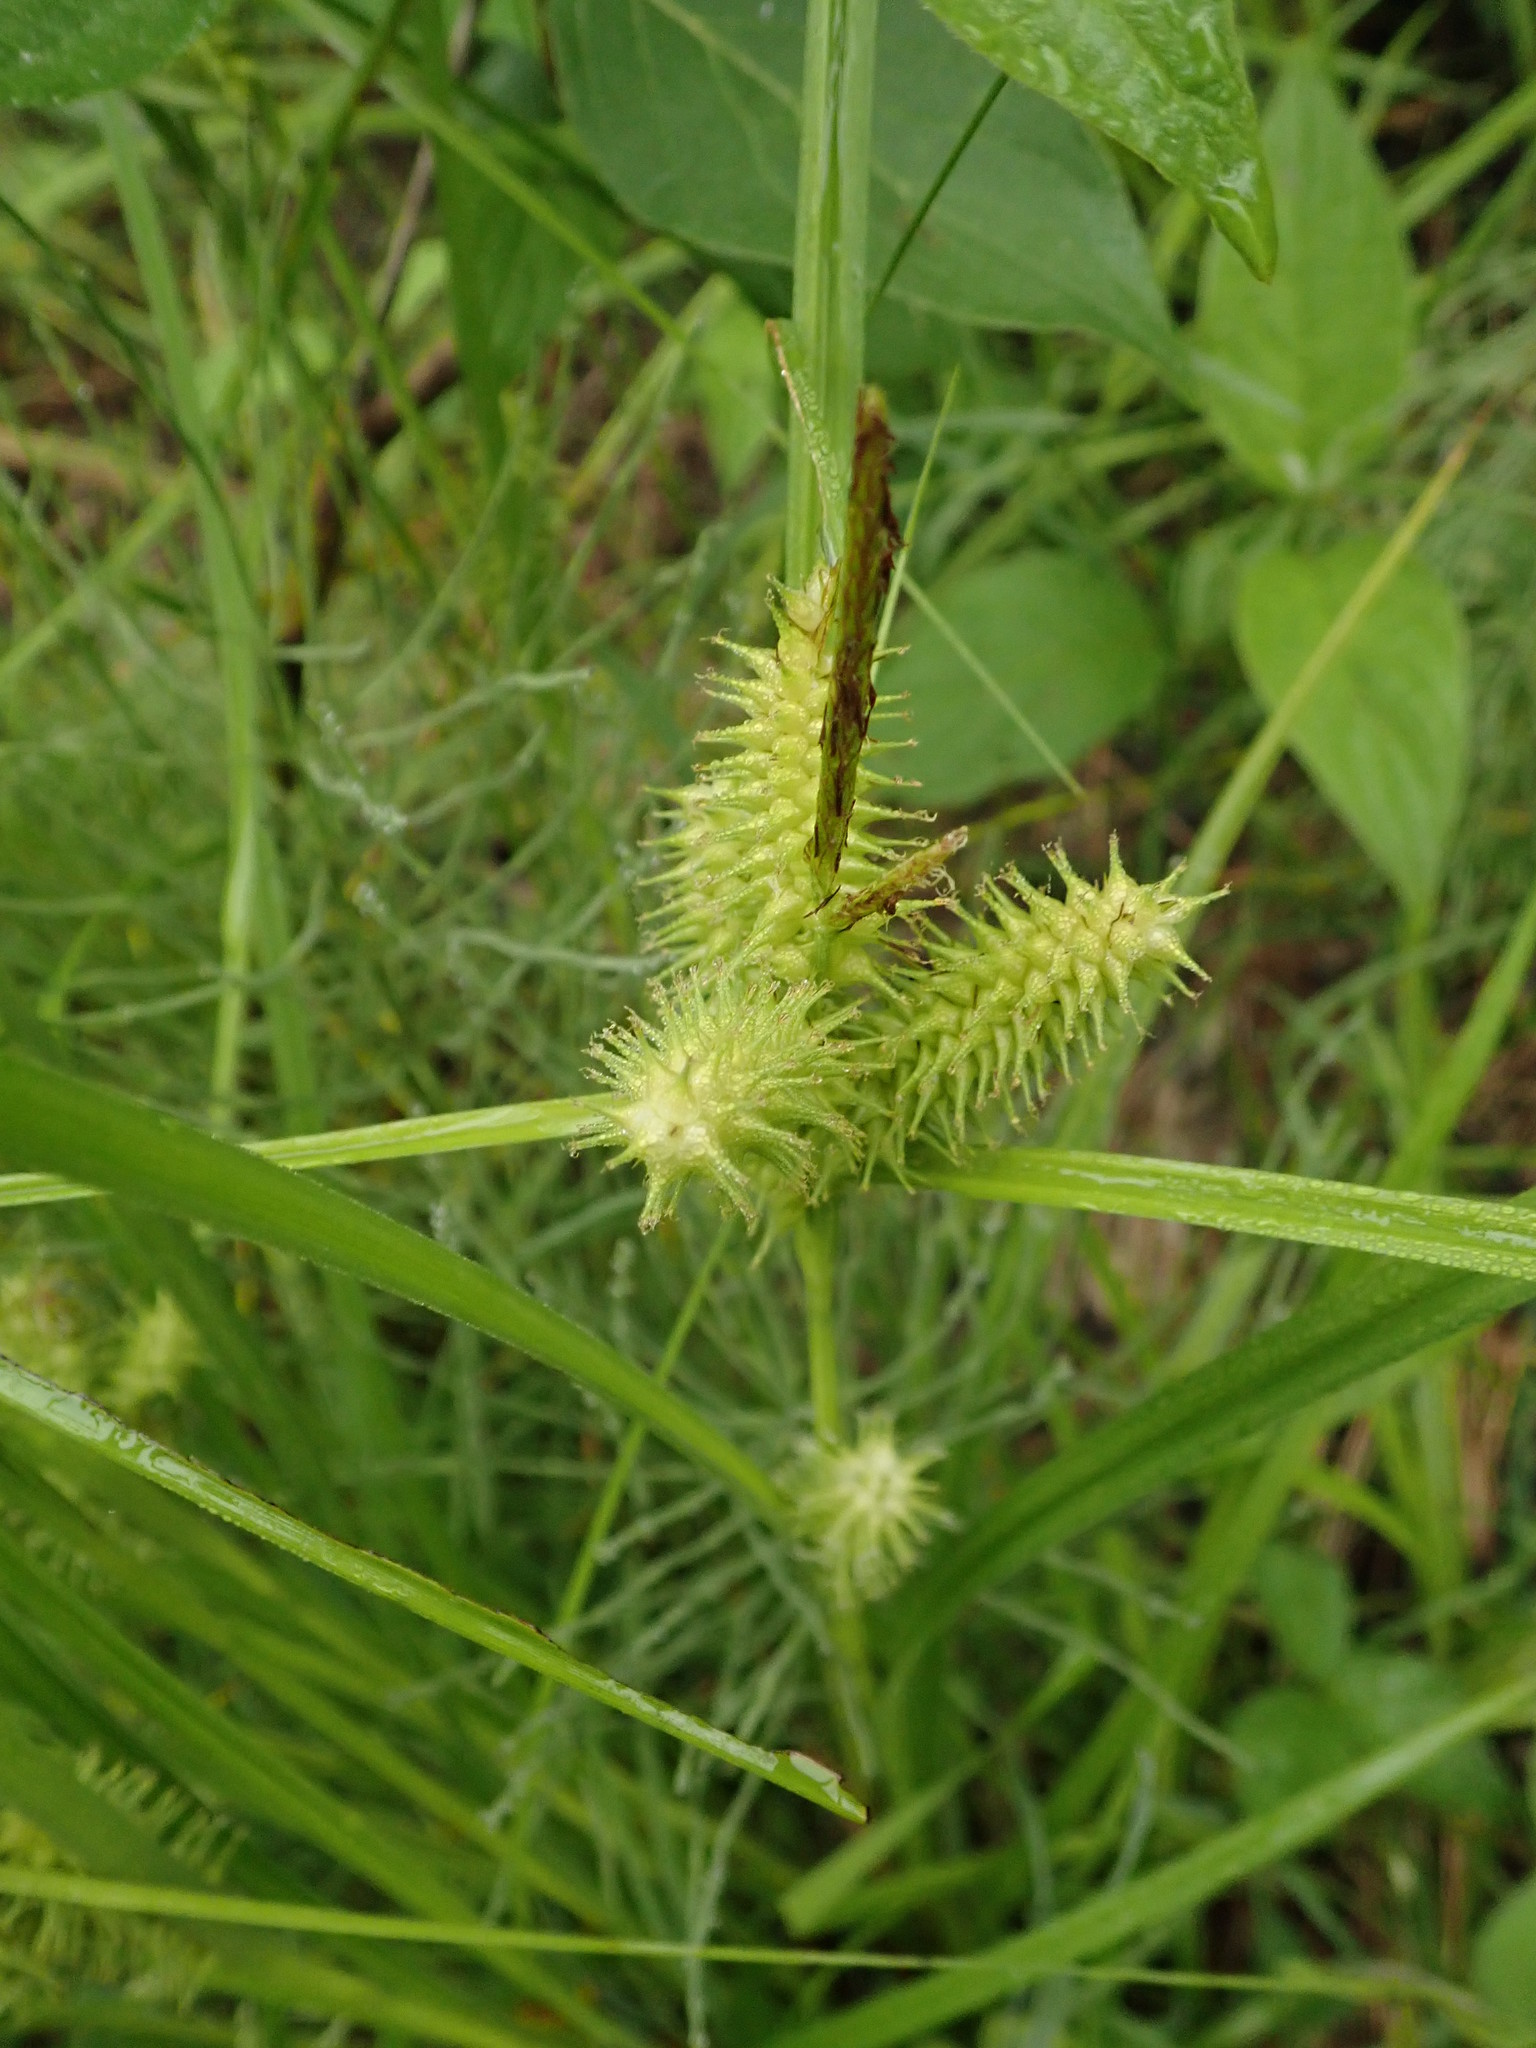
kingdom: Plantae
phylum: Tracheophyta
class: Liliopsida
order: Poales
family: Cyperaceae
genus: Carex
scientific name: Carex retrorsa
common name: Knot-sheath sedge
